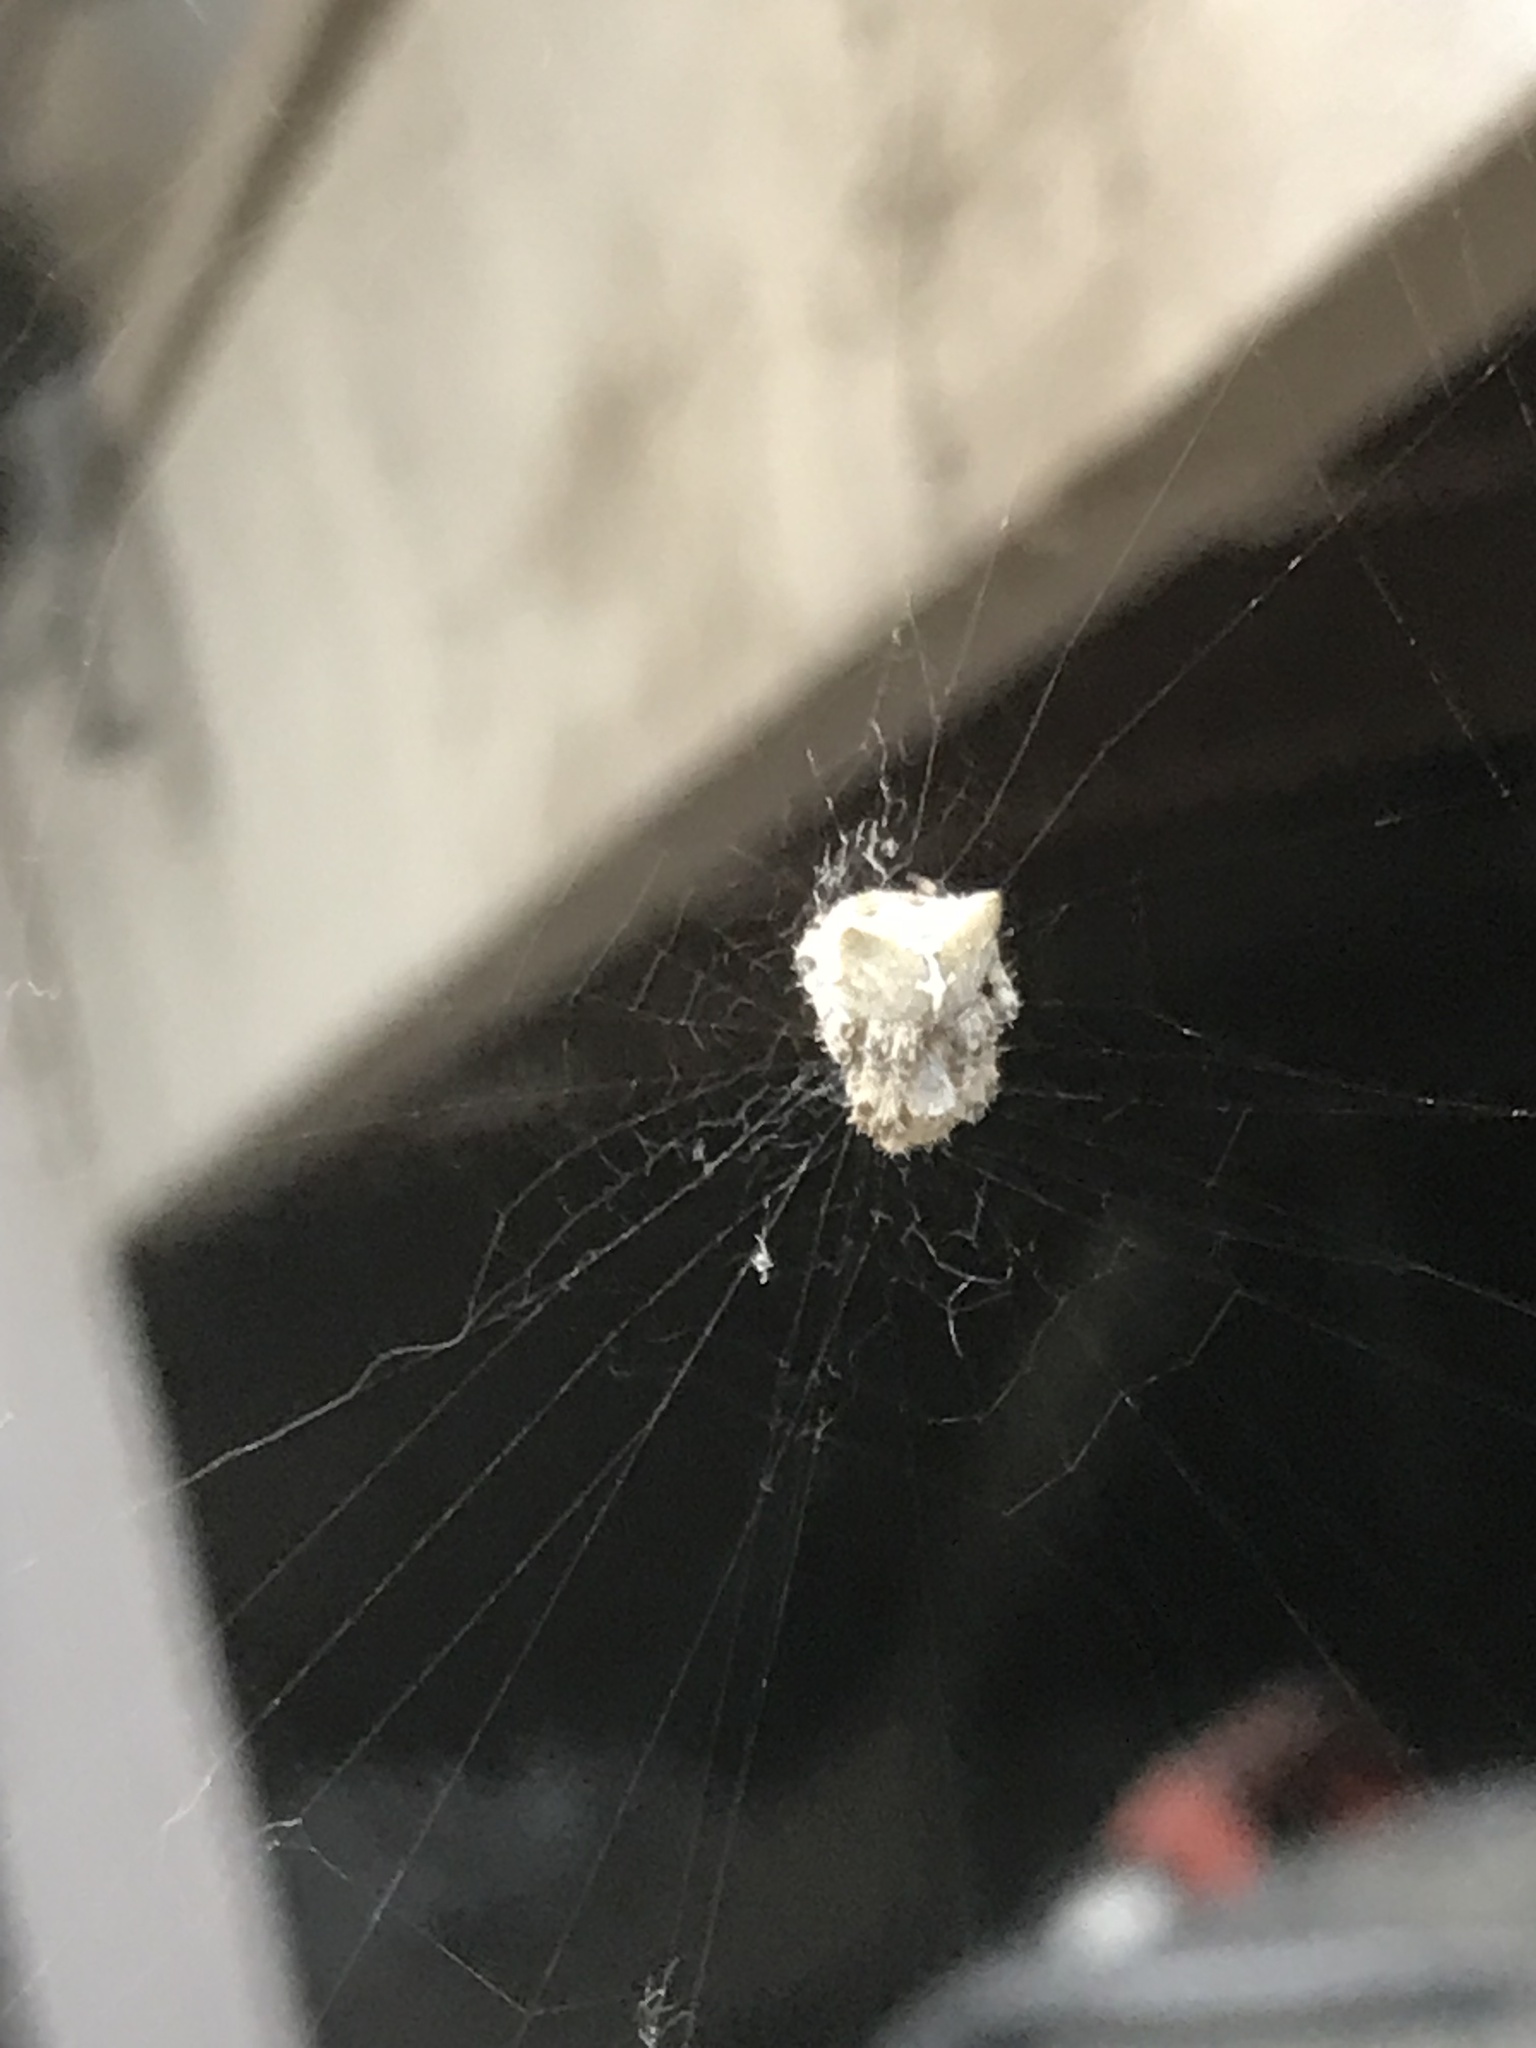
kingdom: Animalia
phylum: Arthropoda
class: Arachnida
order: Araneae
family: Araneidae
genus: Araneus
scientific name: Araneus gemmoides
